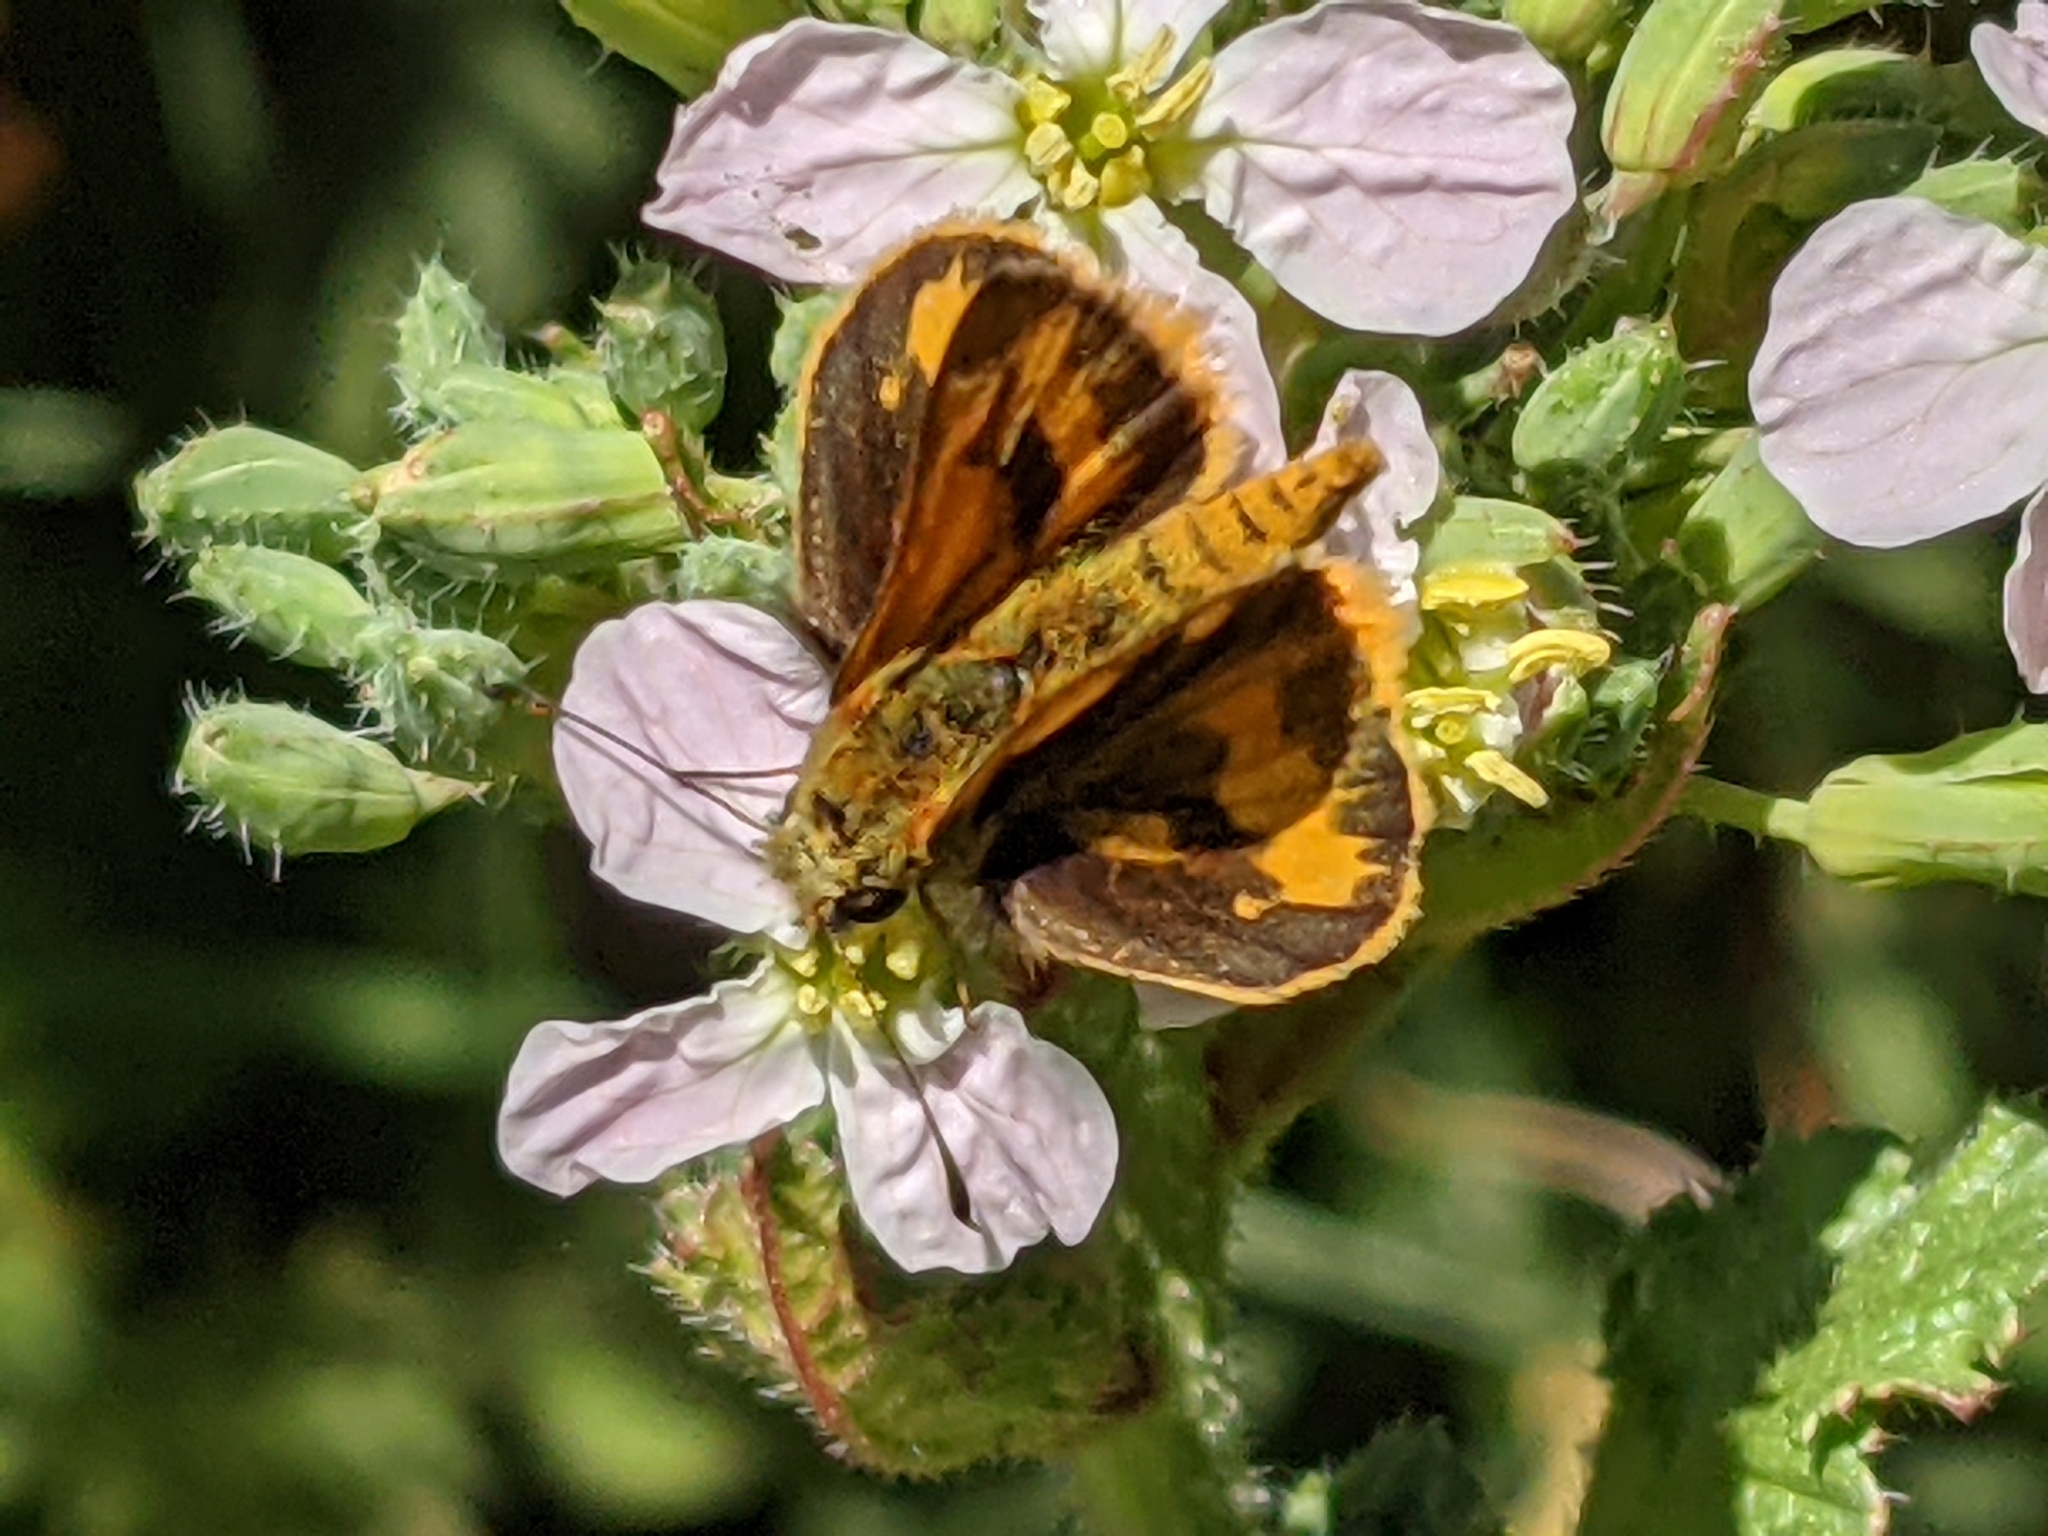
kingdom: Animalia
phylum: Arthropoda
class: Insecta
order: Lepidoptera
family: Hesperiidae
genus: Ocybadistes
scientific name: Ocybadistes walkeri
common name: Yellow-banded dart
